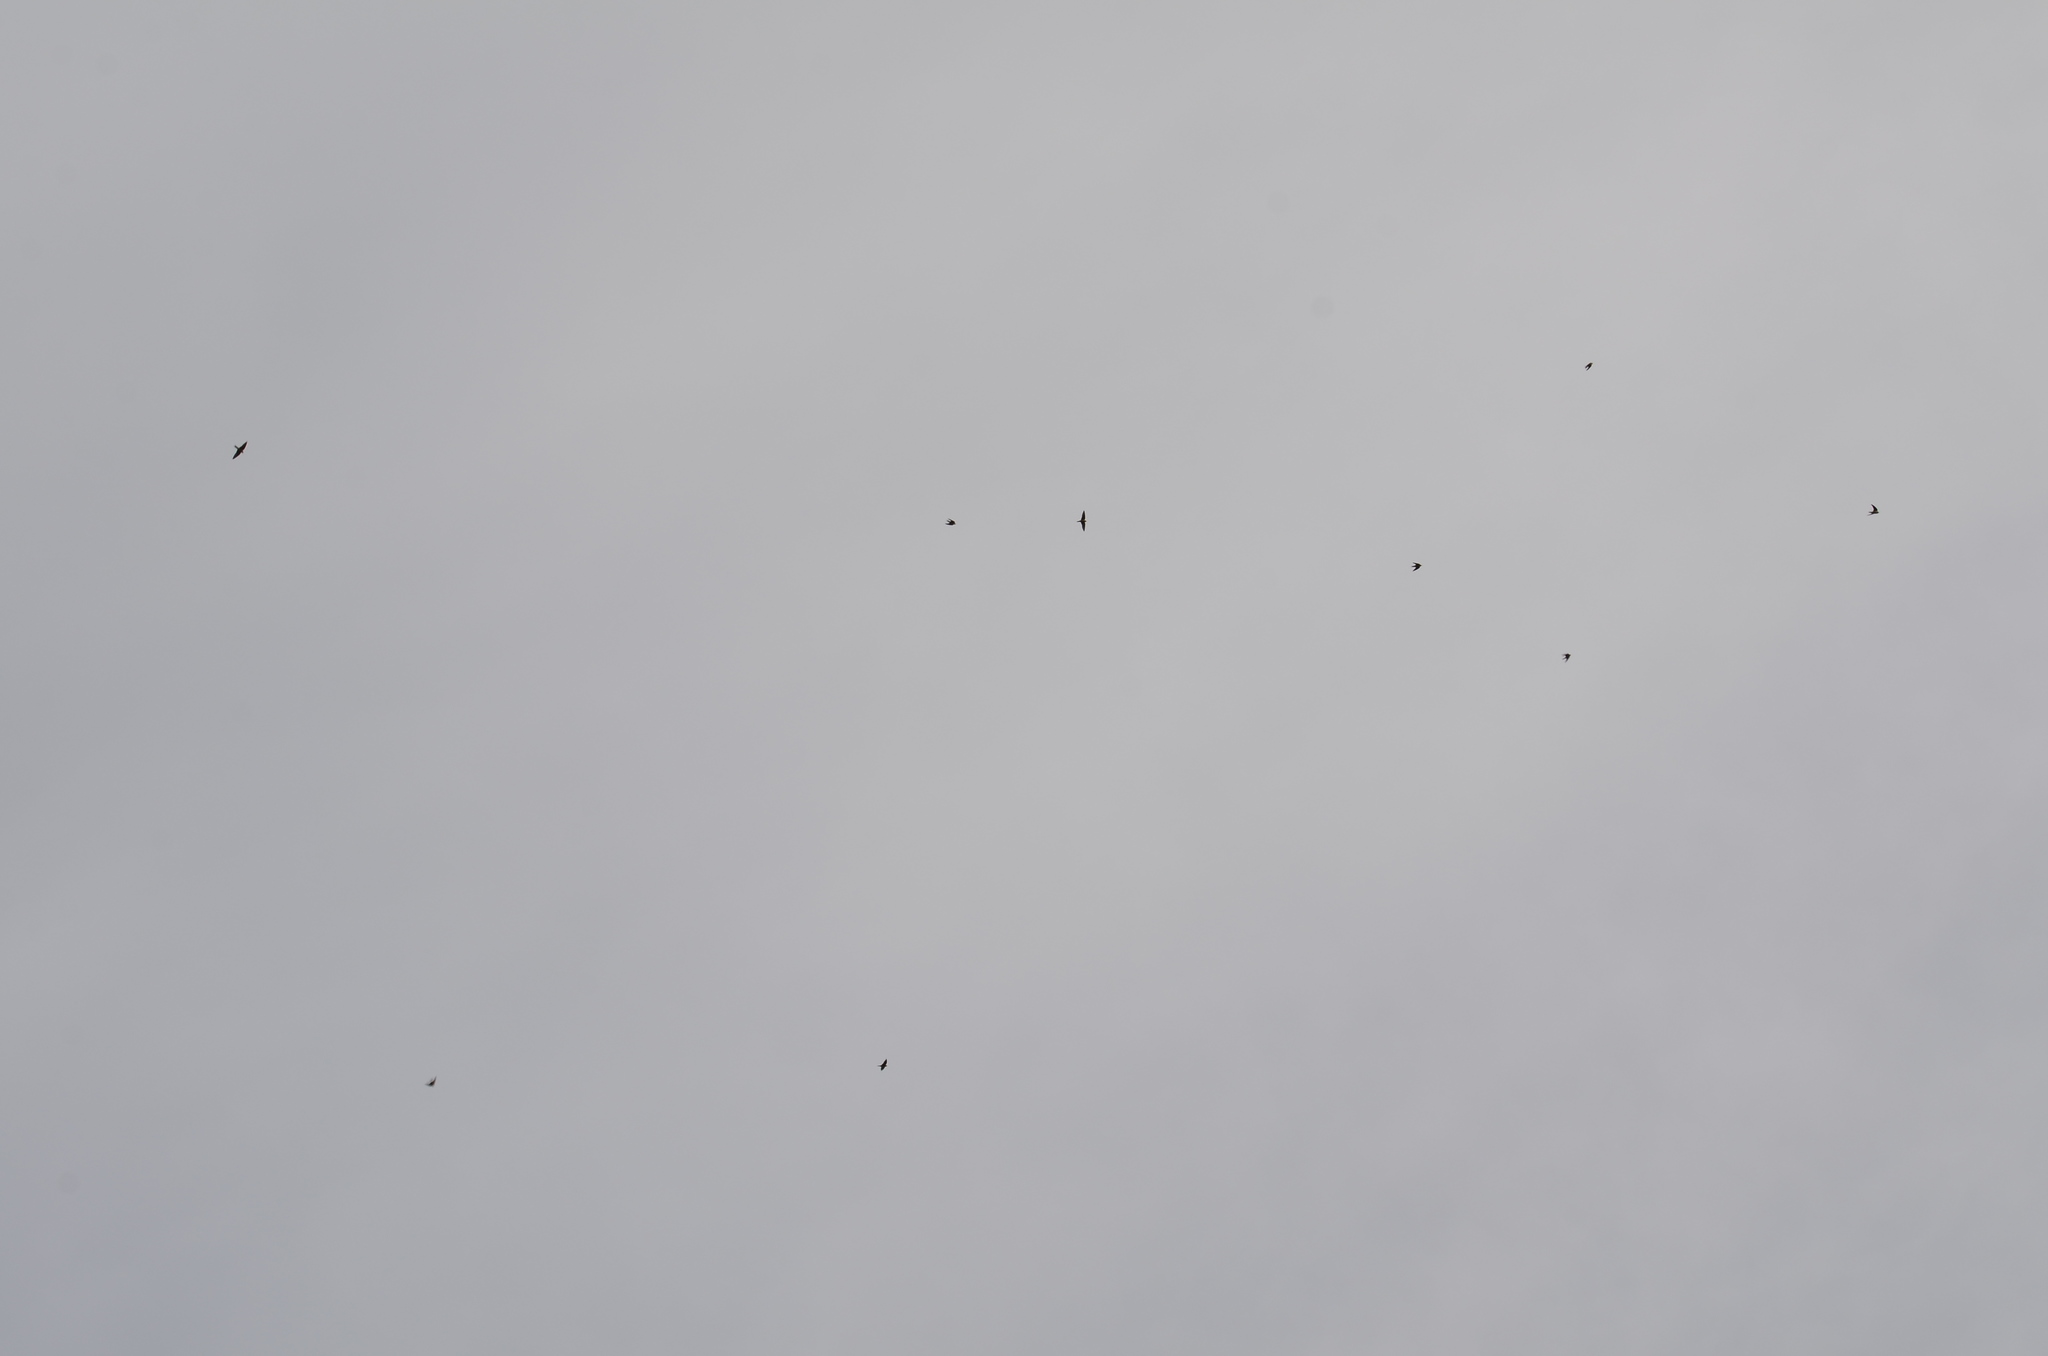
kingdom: Animalia
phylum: Chordata
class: Aves
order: Apodiformes
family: Apodidae
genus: Chaetura
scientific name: Chaetura vauxi
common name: Vaux's swift
